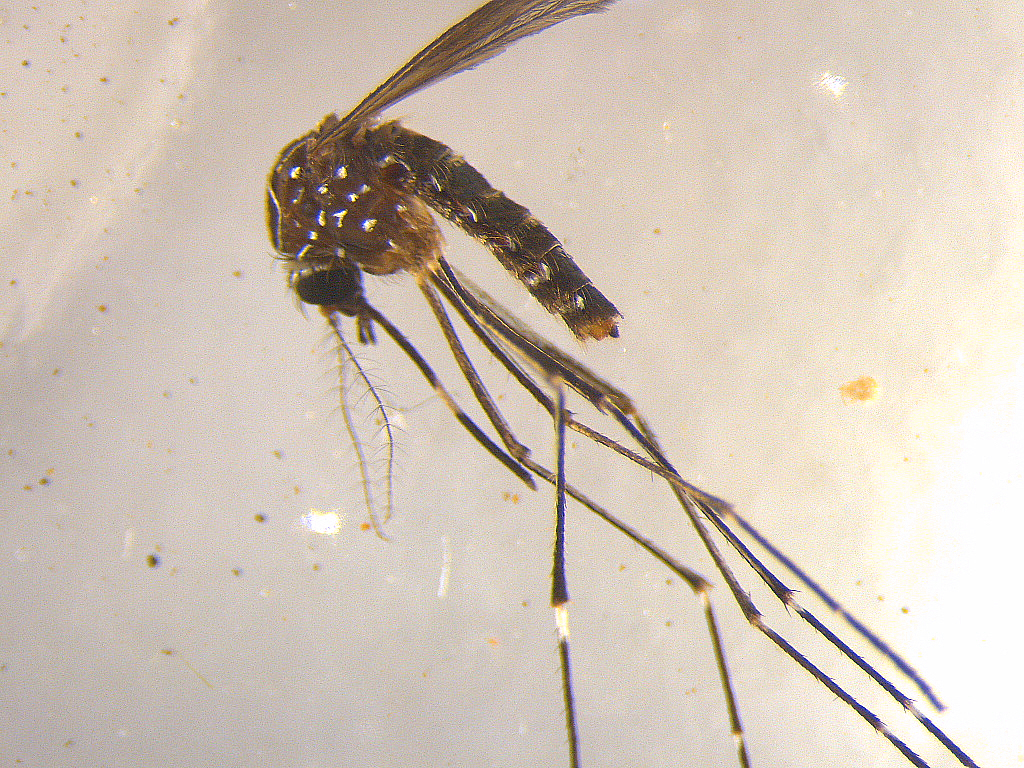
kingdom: Animalia
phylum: Arthropoda
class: Insecta
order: Diptera
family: Culicidae
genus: Aedes
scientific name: Aedes notoscriptus
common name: Australian backyard mosquito
